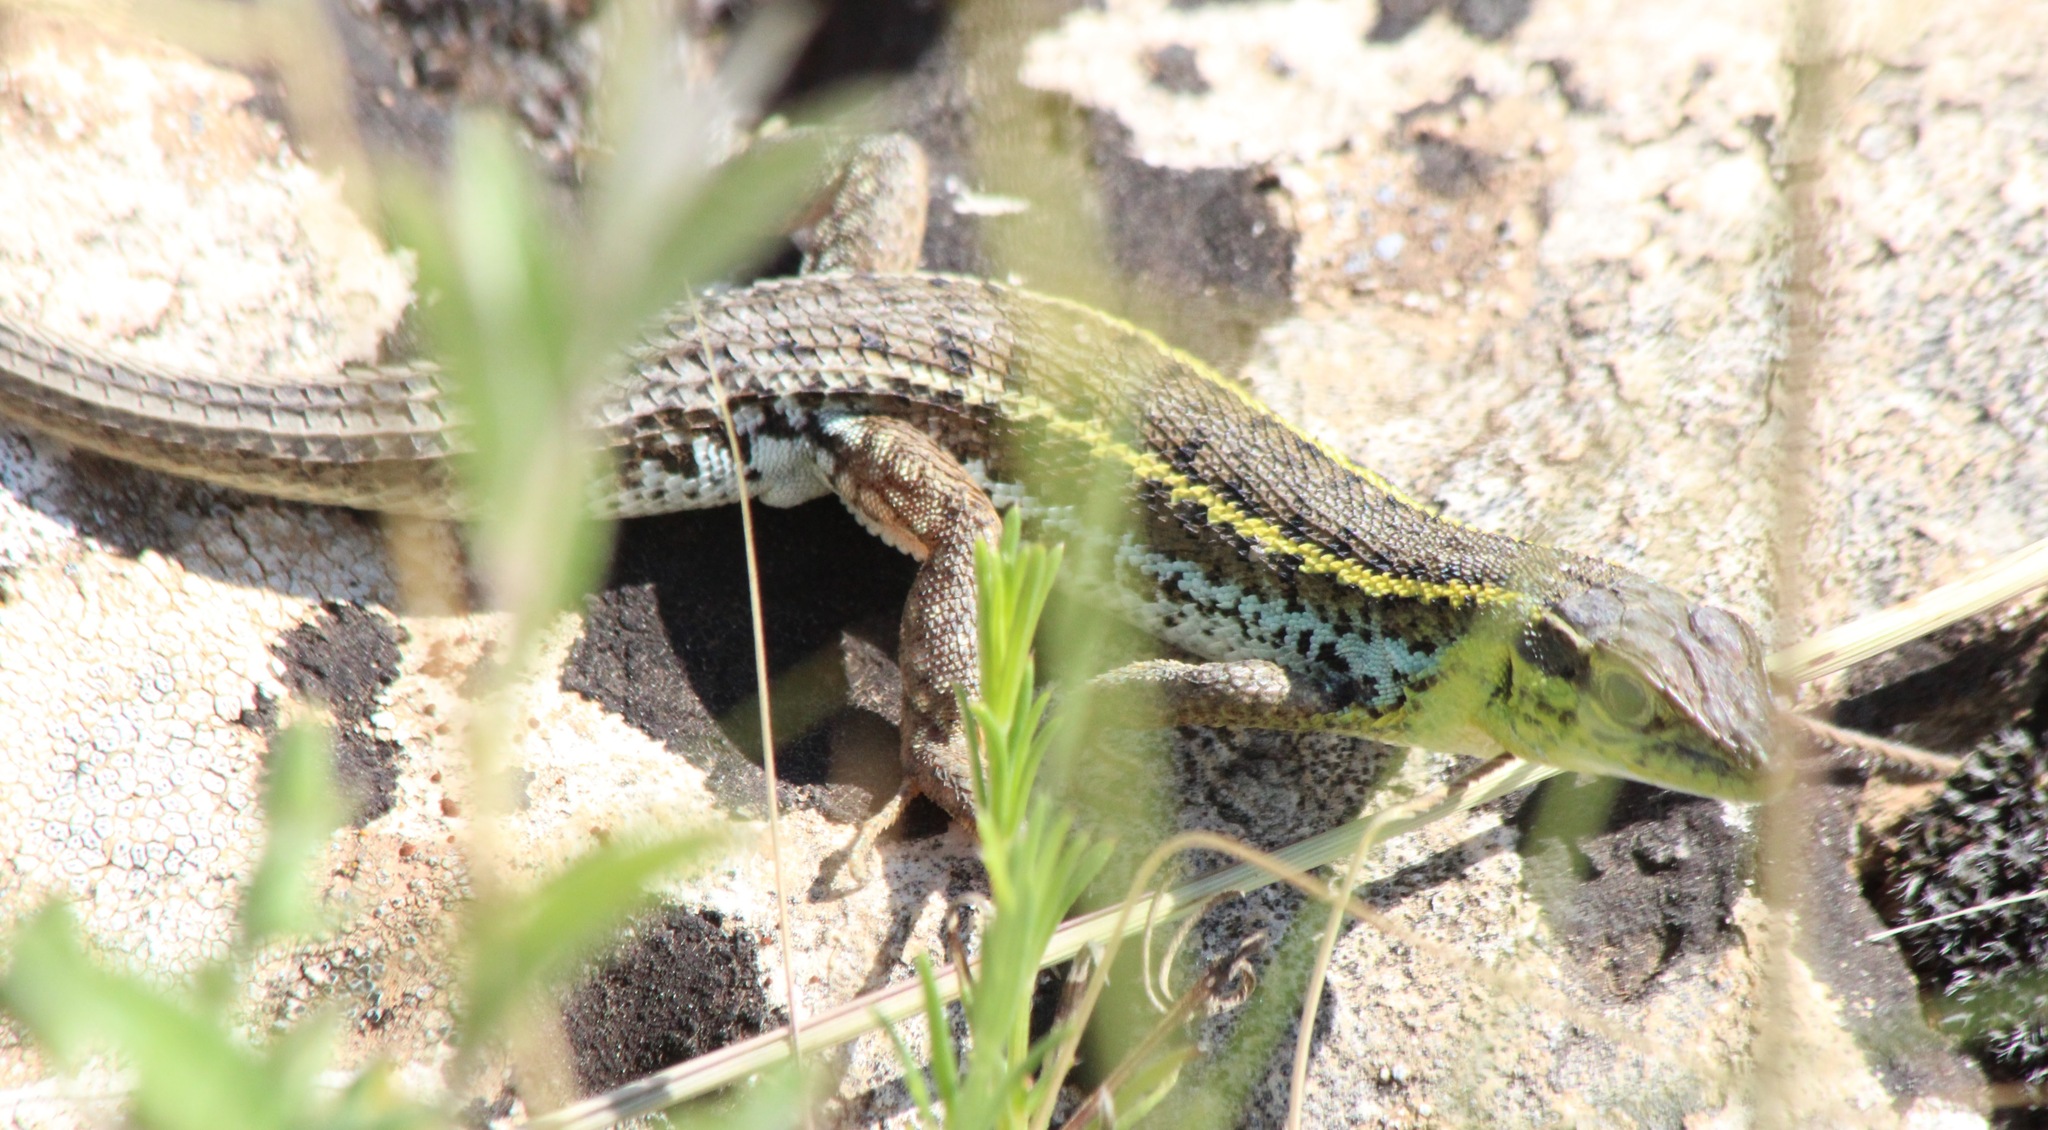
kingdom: Animalia
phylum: Chordata
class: Squamata
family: Lacertidae
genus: Ophisops
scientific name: Ophisops elegans
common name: Snake-eyed lizard
